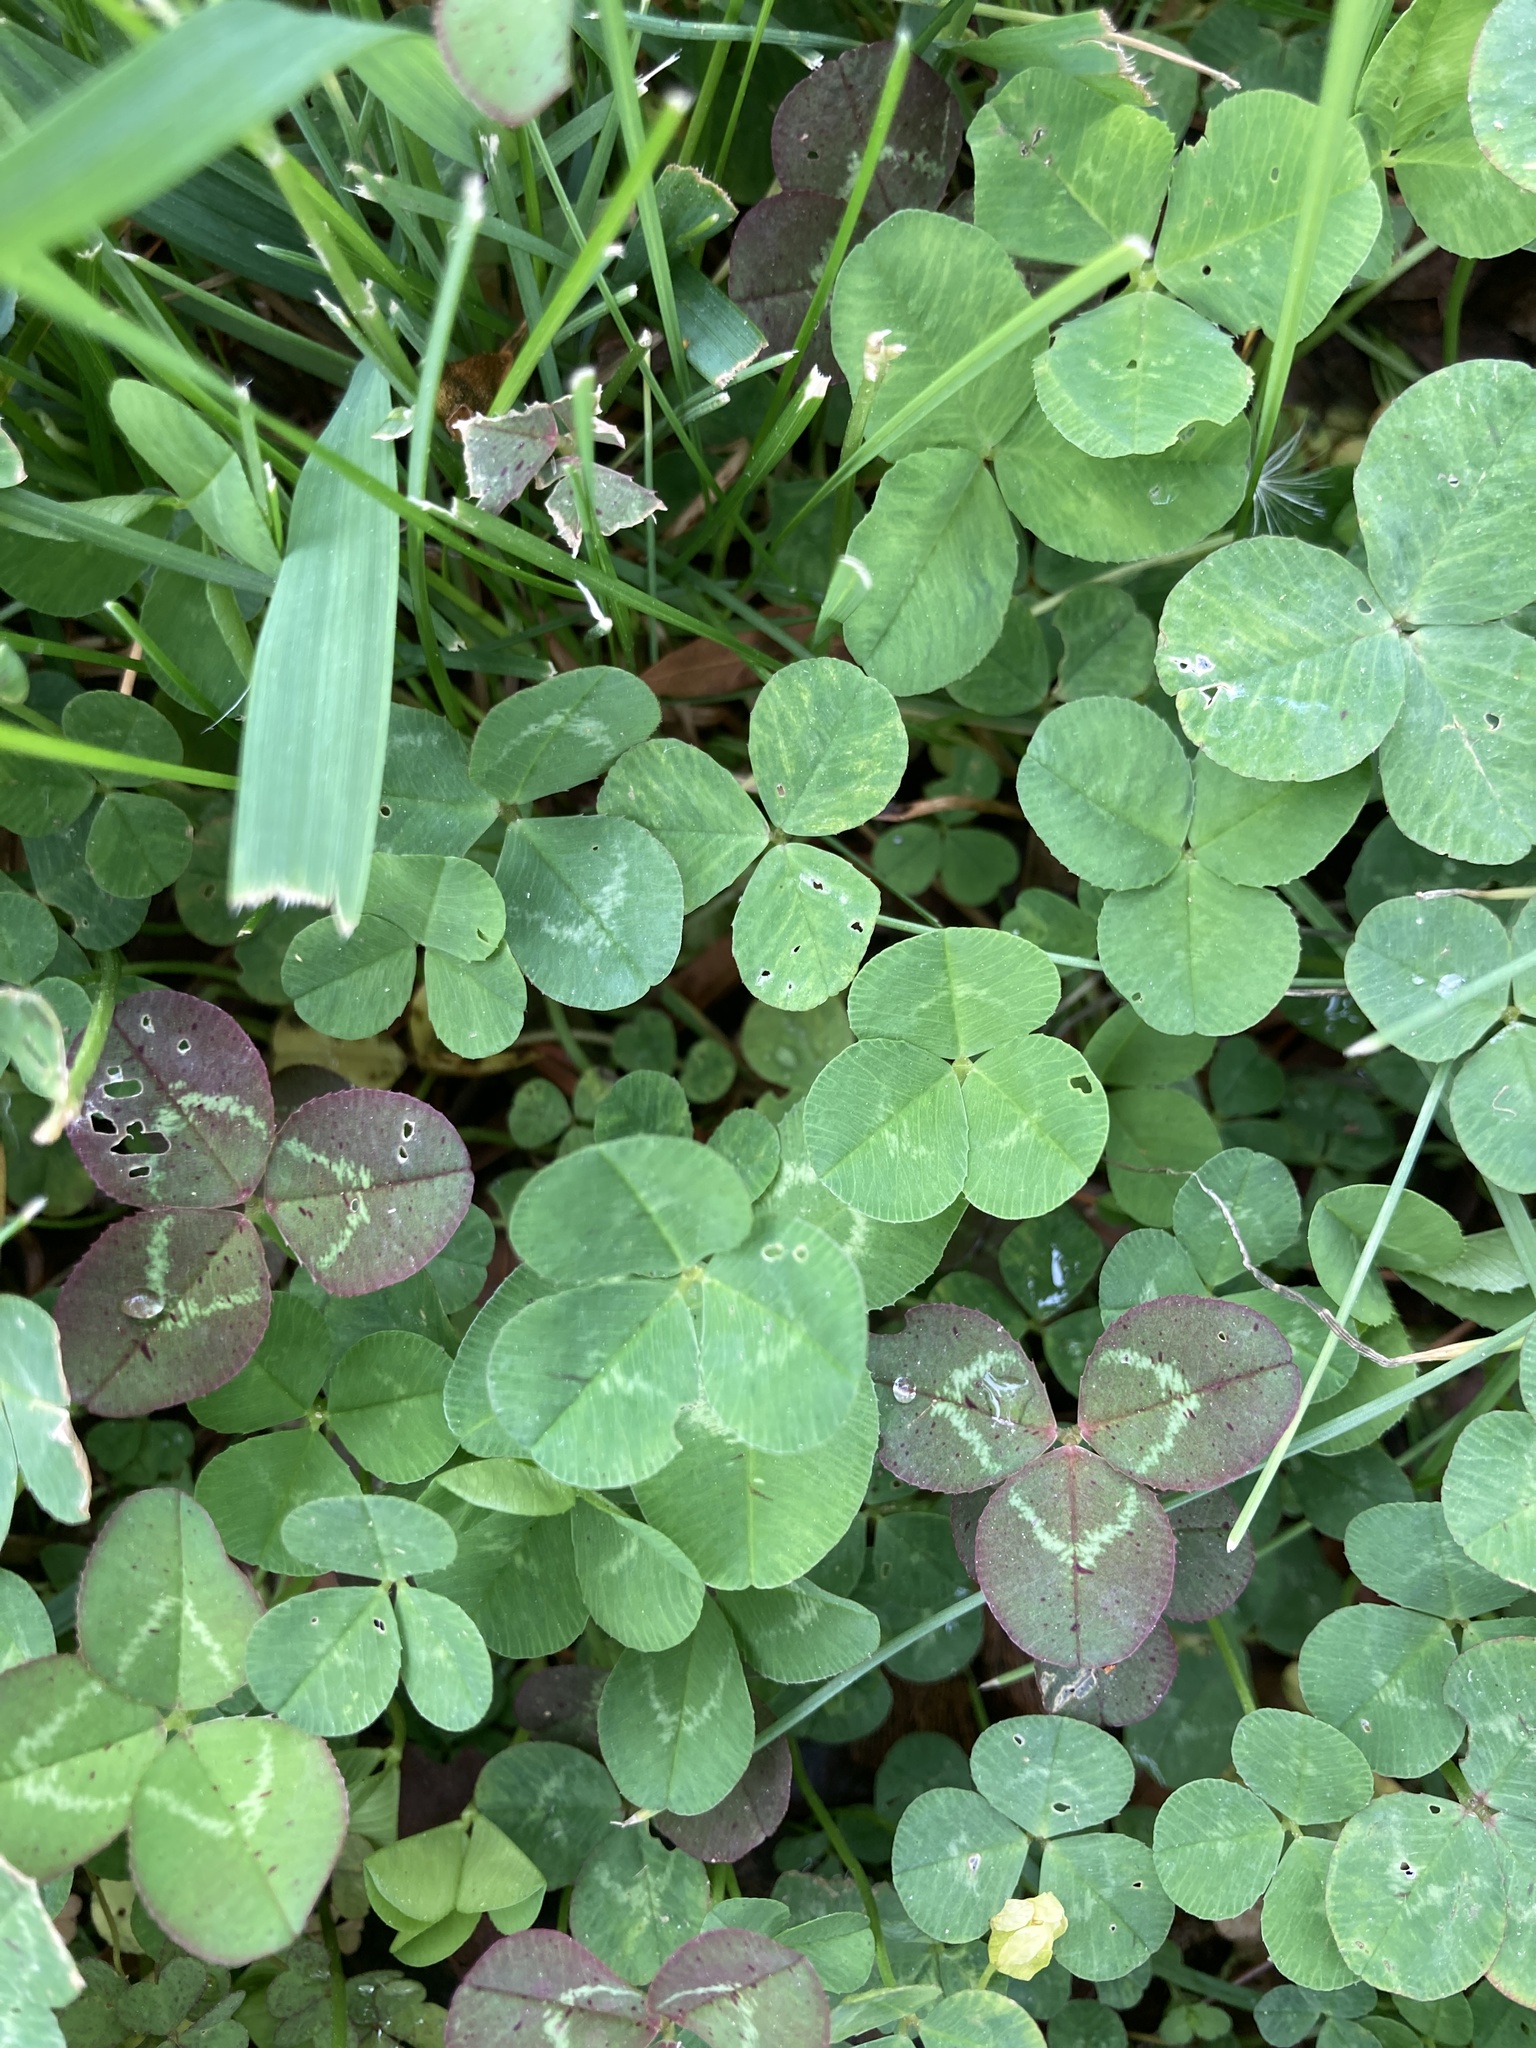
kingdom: Plantae
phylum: Tracheophyta
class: Magnoliopsida
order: Fabales
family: Fabaceae
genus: Trifolium
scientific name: Trifolium repens
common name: White clover
